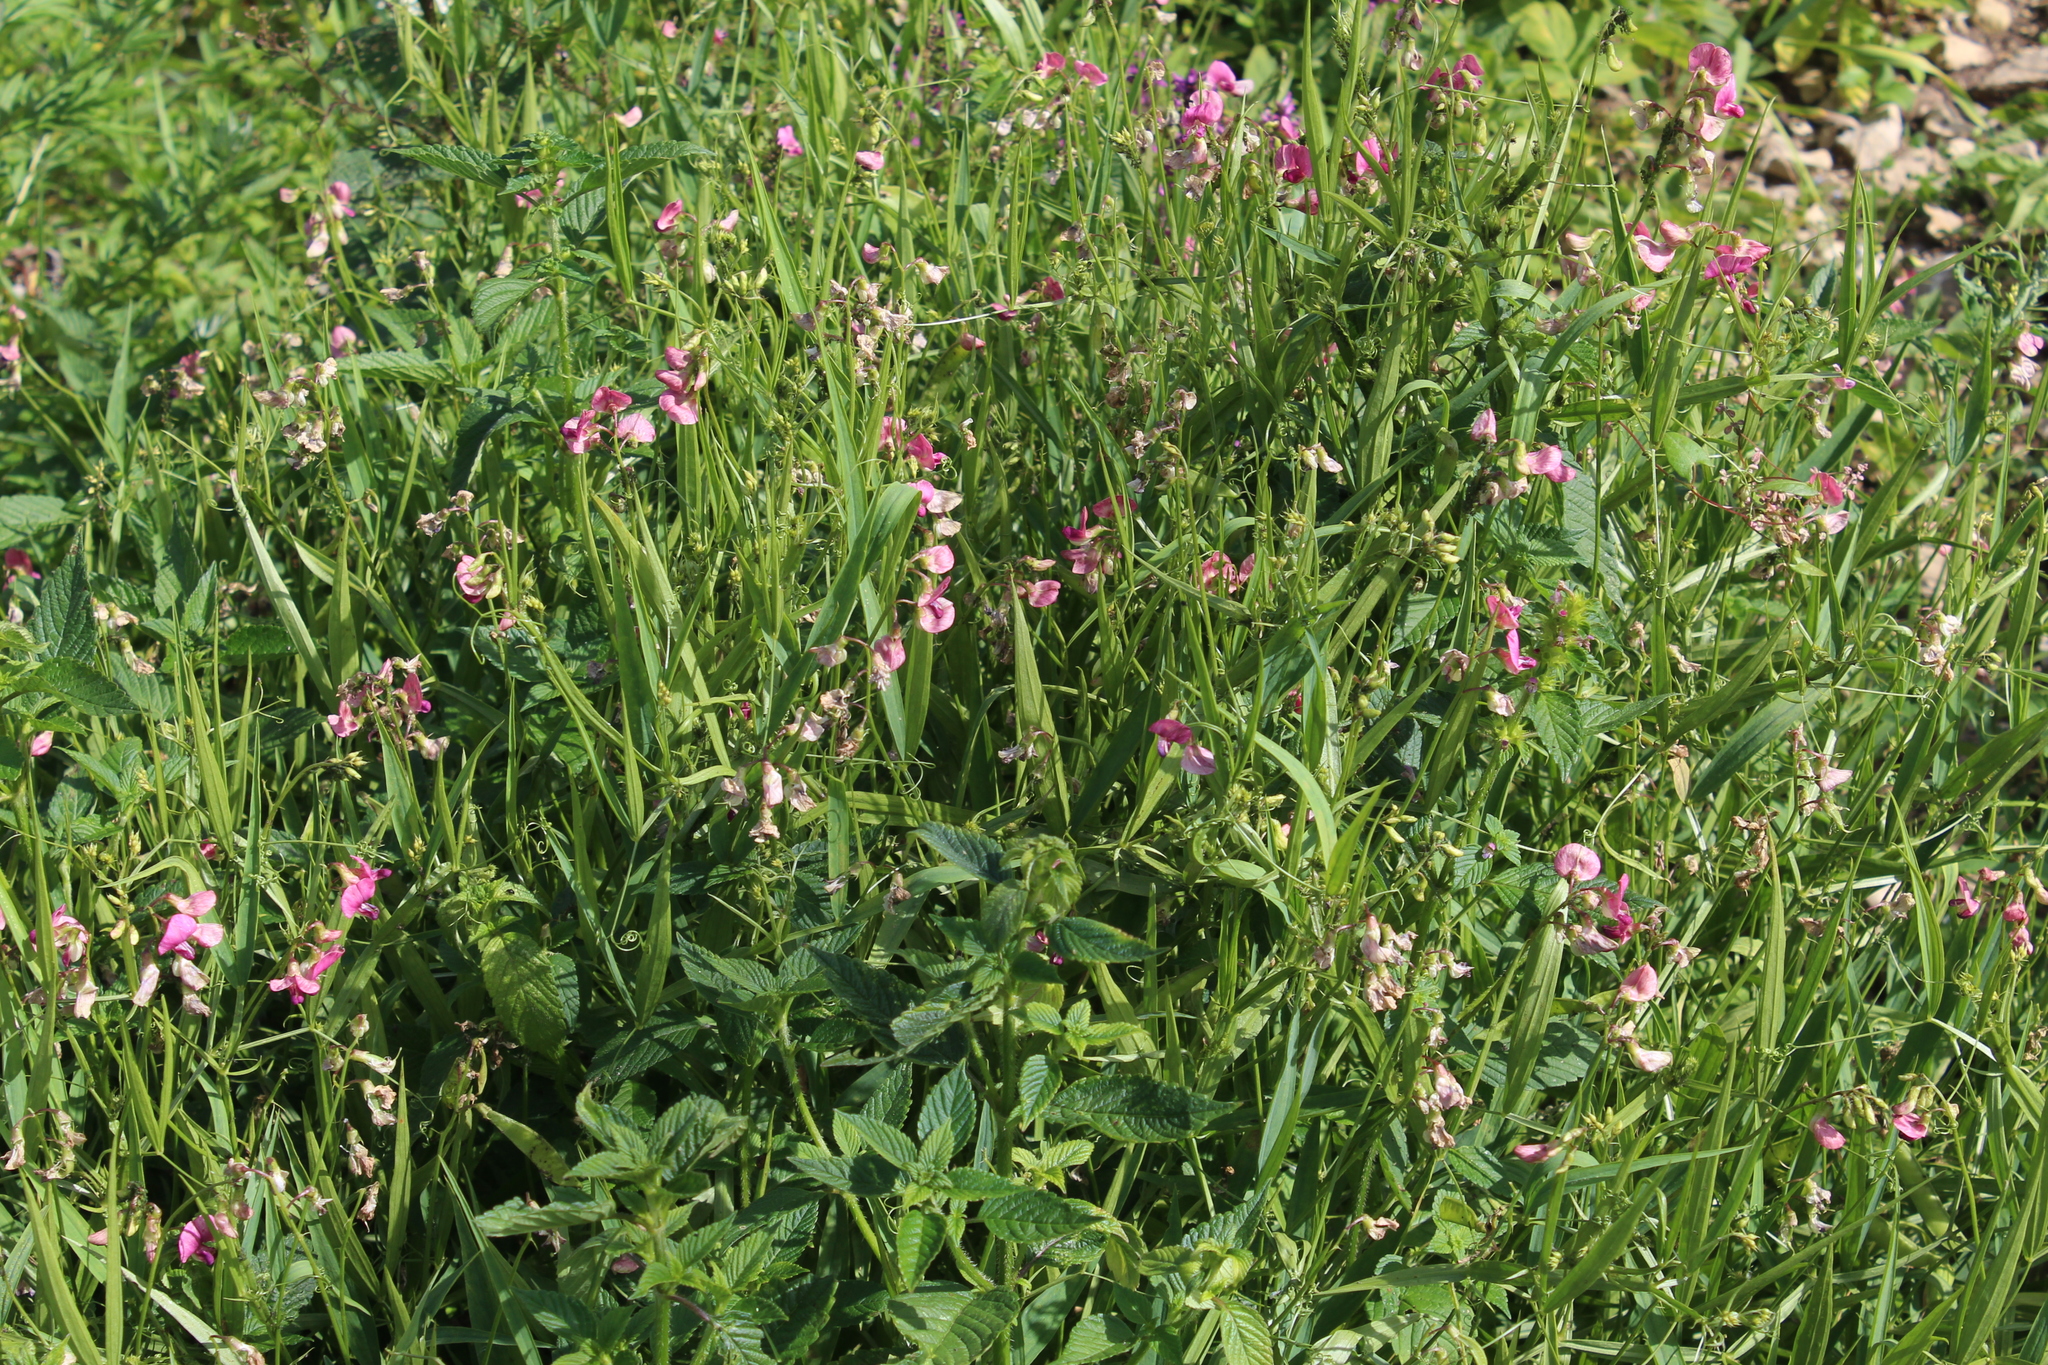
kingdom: Plantae
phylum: Tracheophyta
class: Magnoliopsida
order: Fabales
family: Fabaceae
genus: Lathyrus
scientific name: Lathyrus sylvestris
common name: Flat pea
